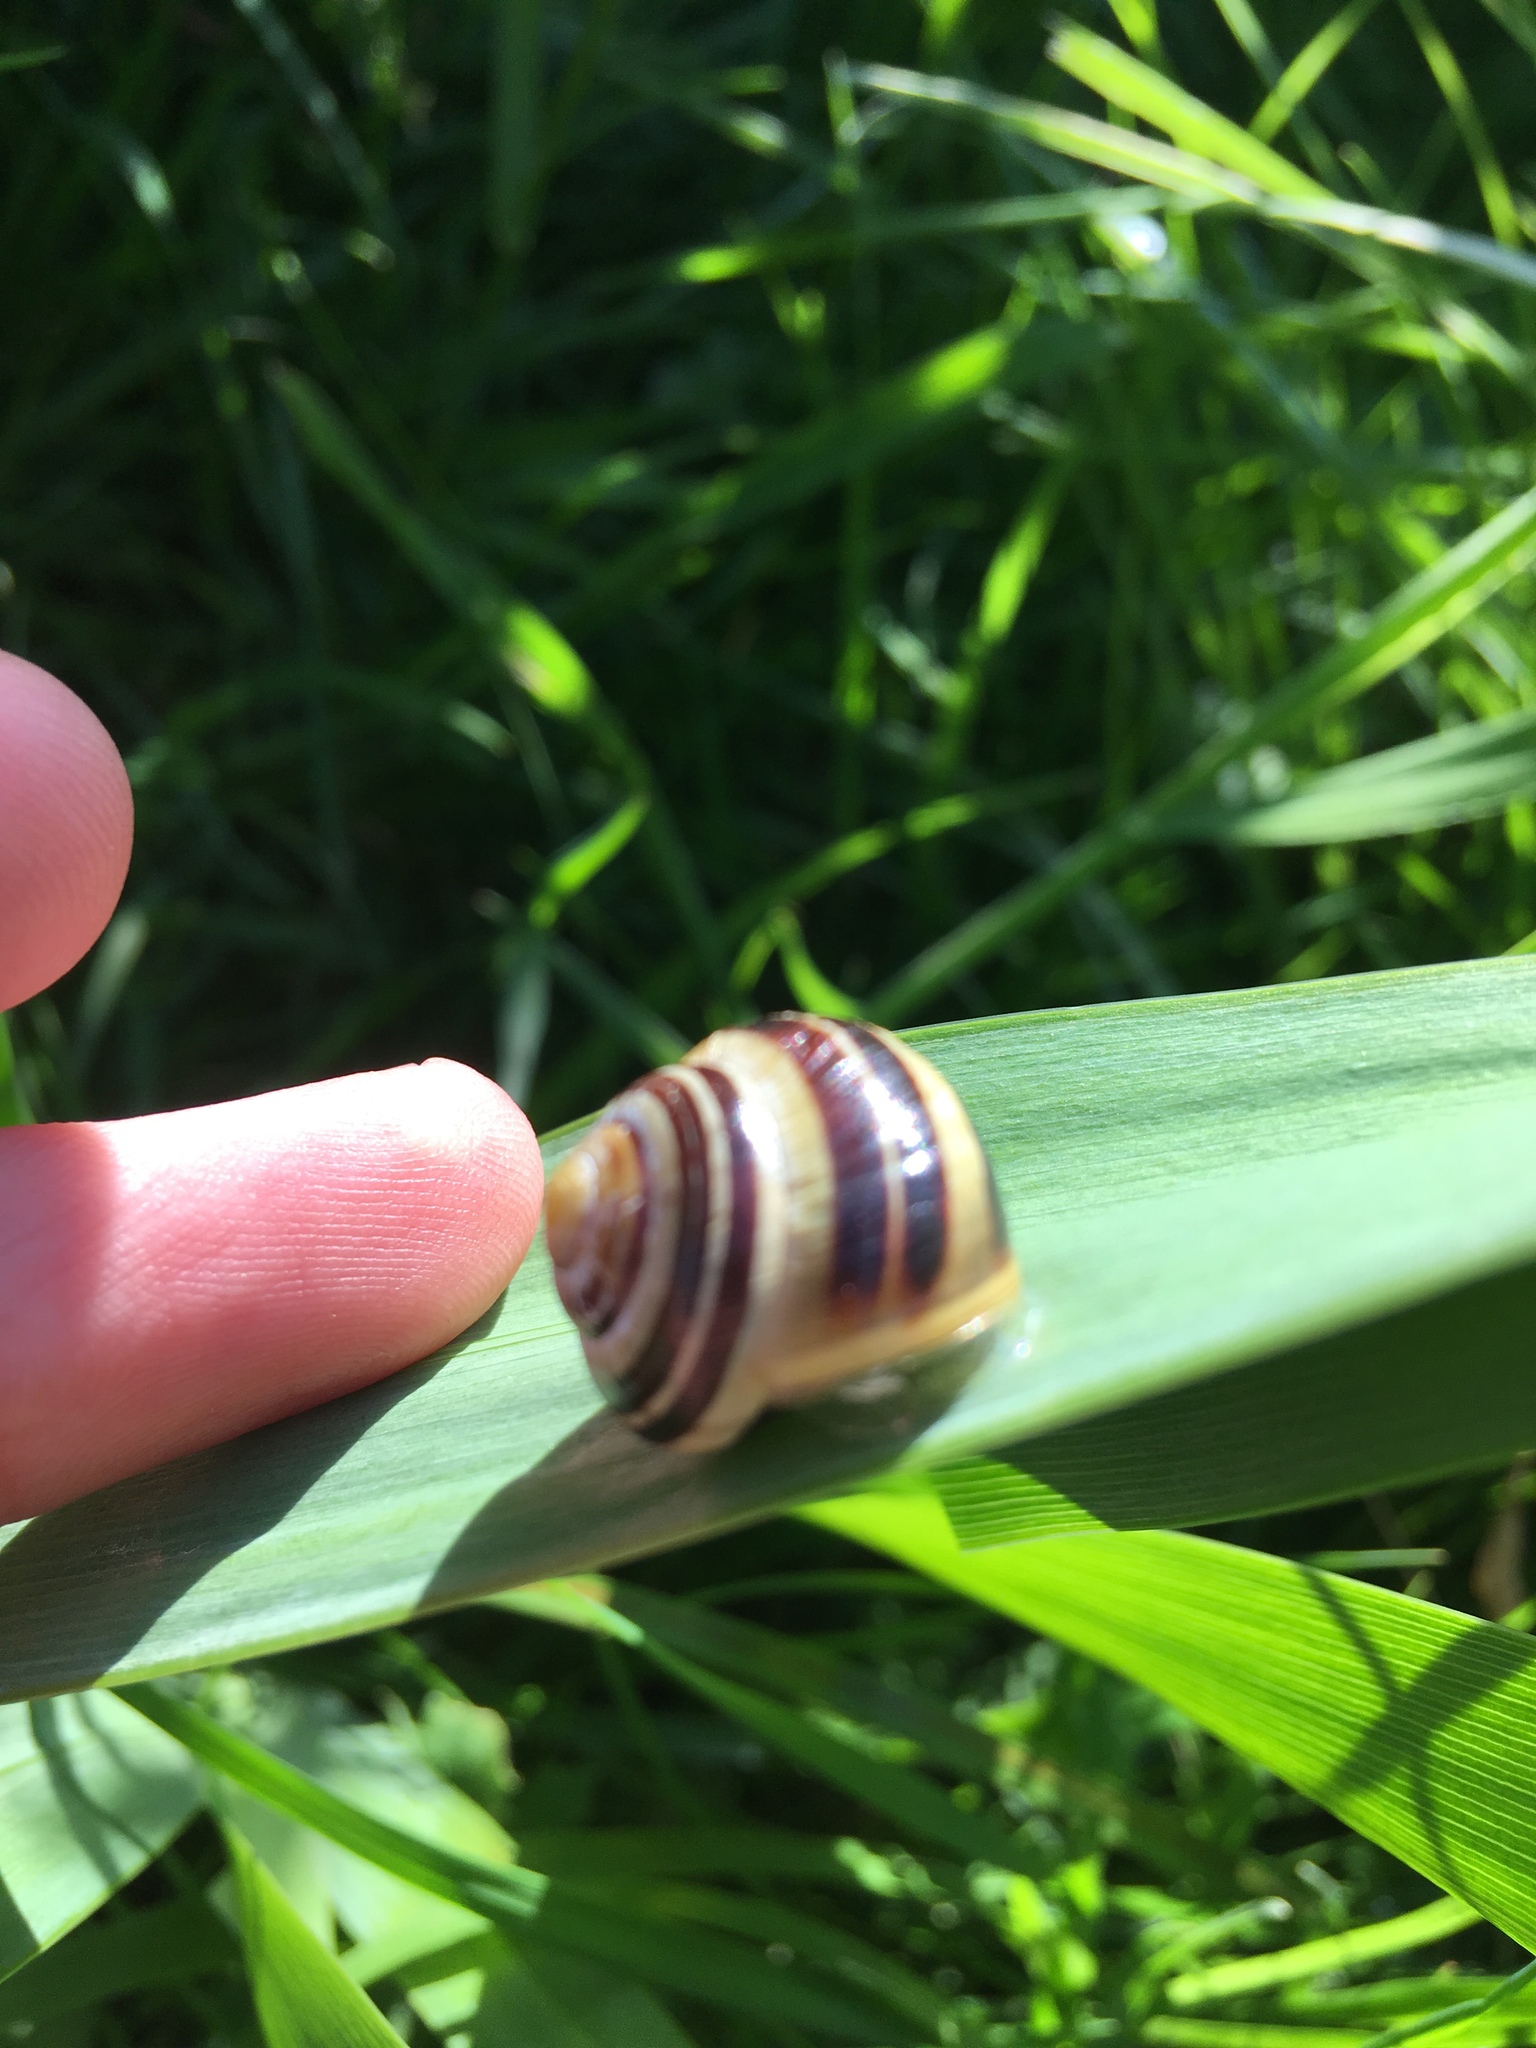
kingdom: Animalia
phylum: Mollusca
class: Gastropoda
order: Stylommatophora
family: Helicidae
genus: Cepaea
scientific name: Cepaea hortensis
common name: White-lip gardensnail
